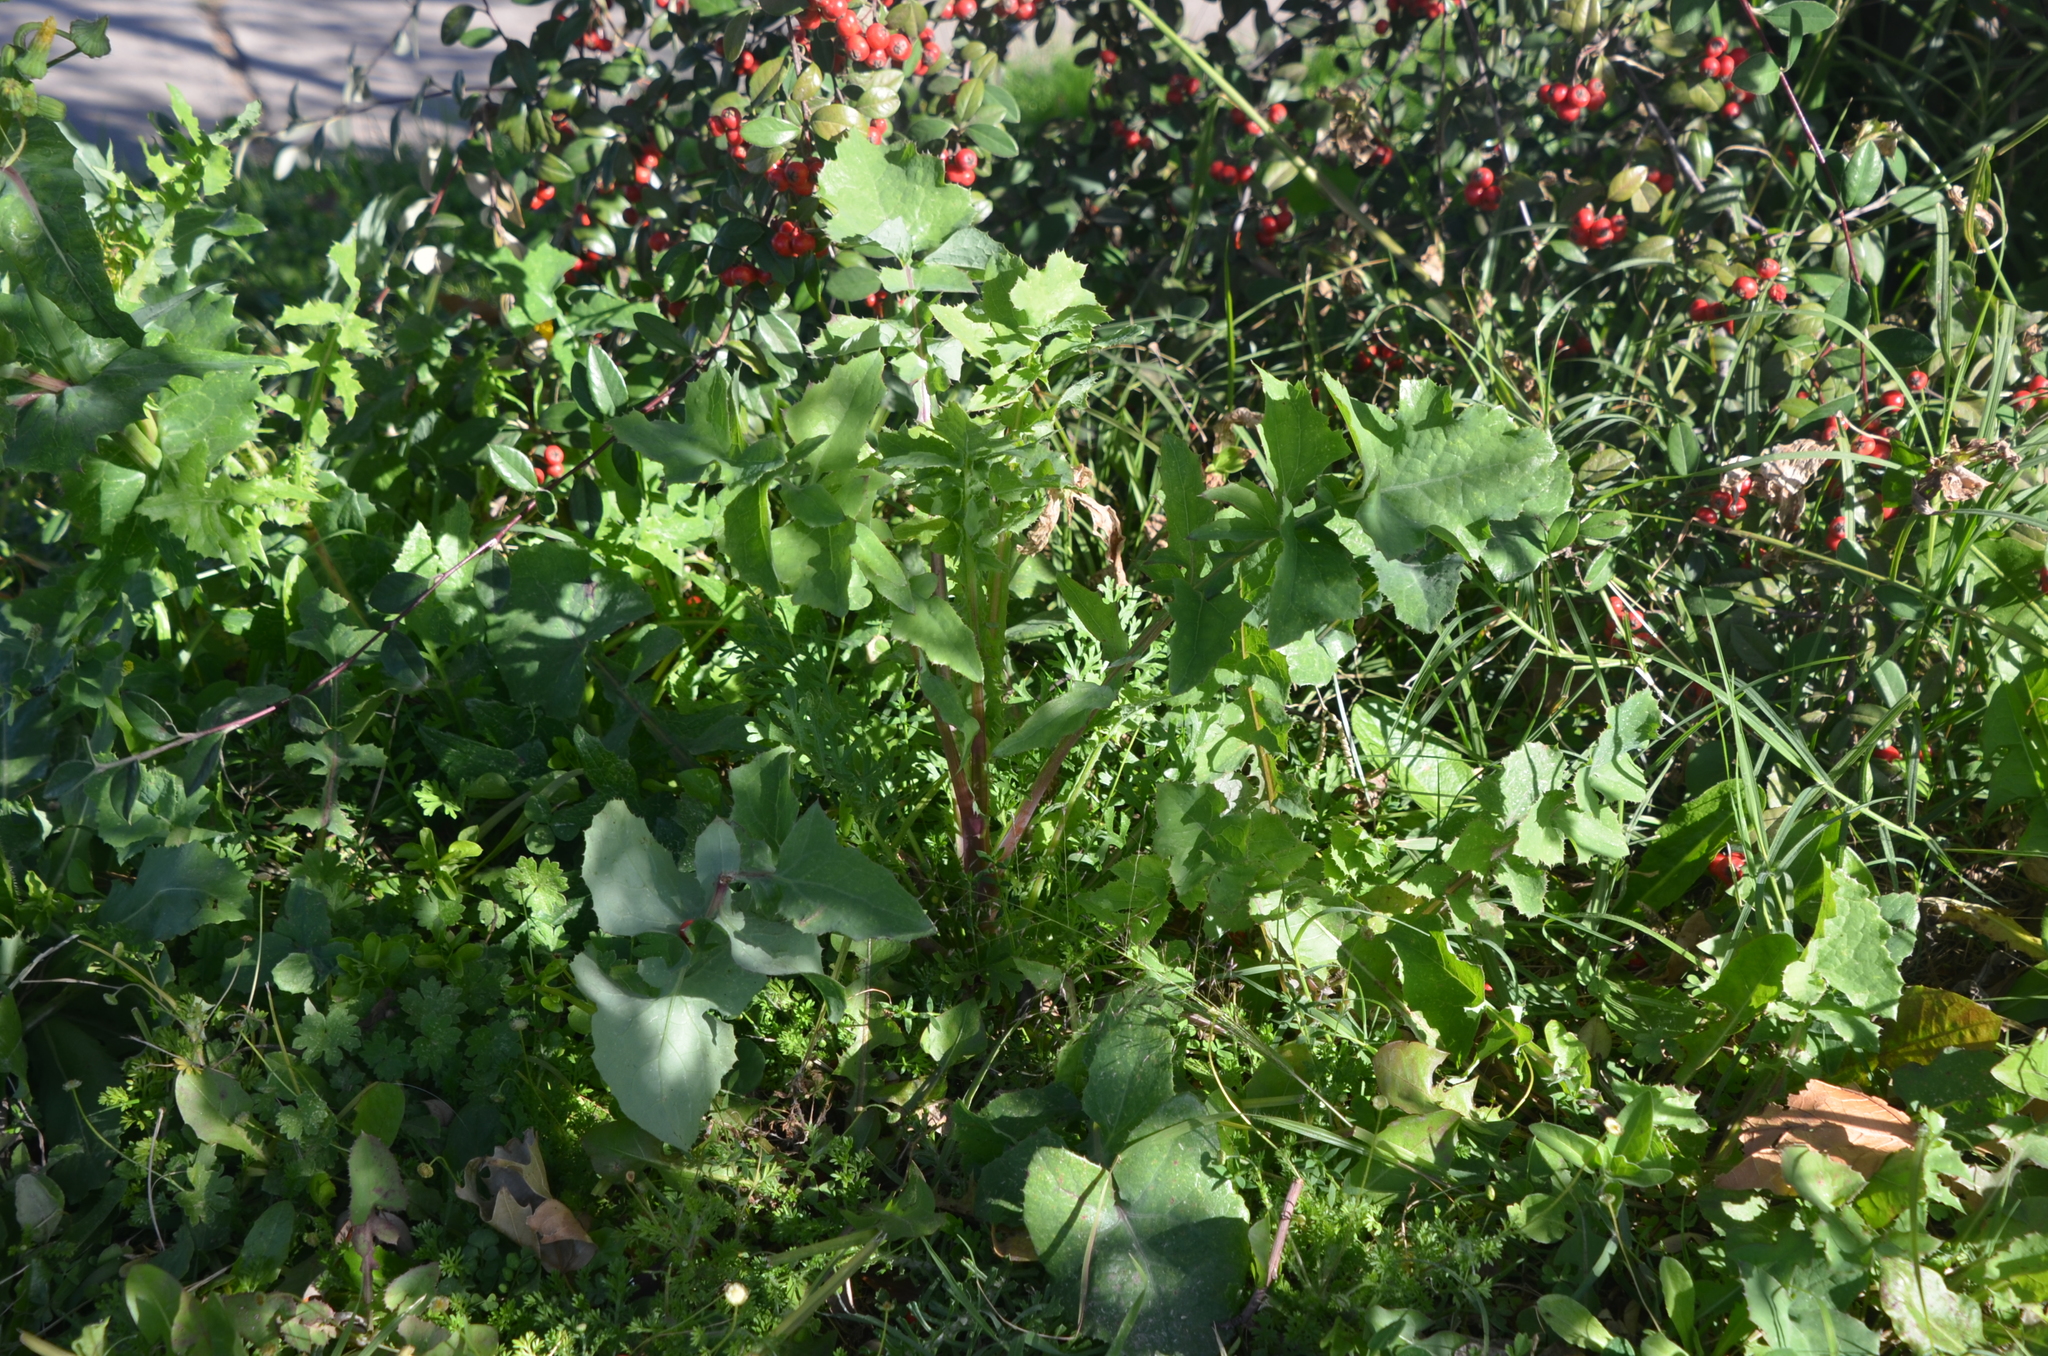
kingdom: Plantae
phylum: Tracheophyta
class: Magnoliopsida
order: Asterales
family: Asteraceae
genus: Sonchus
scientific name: Sonchus oleraceus
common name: Common sowthistle
